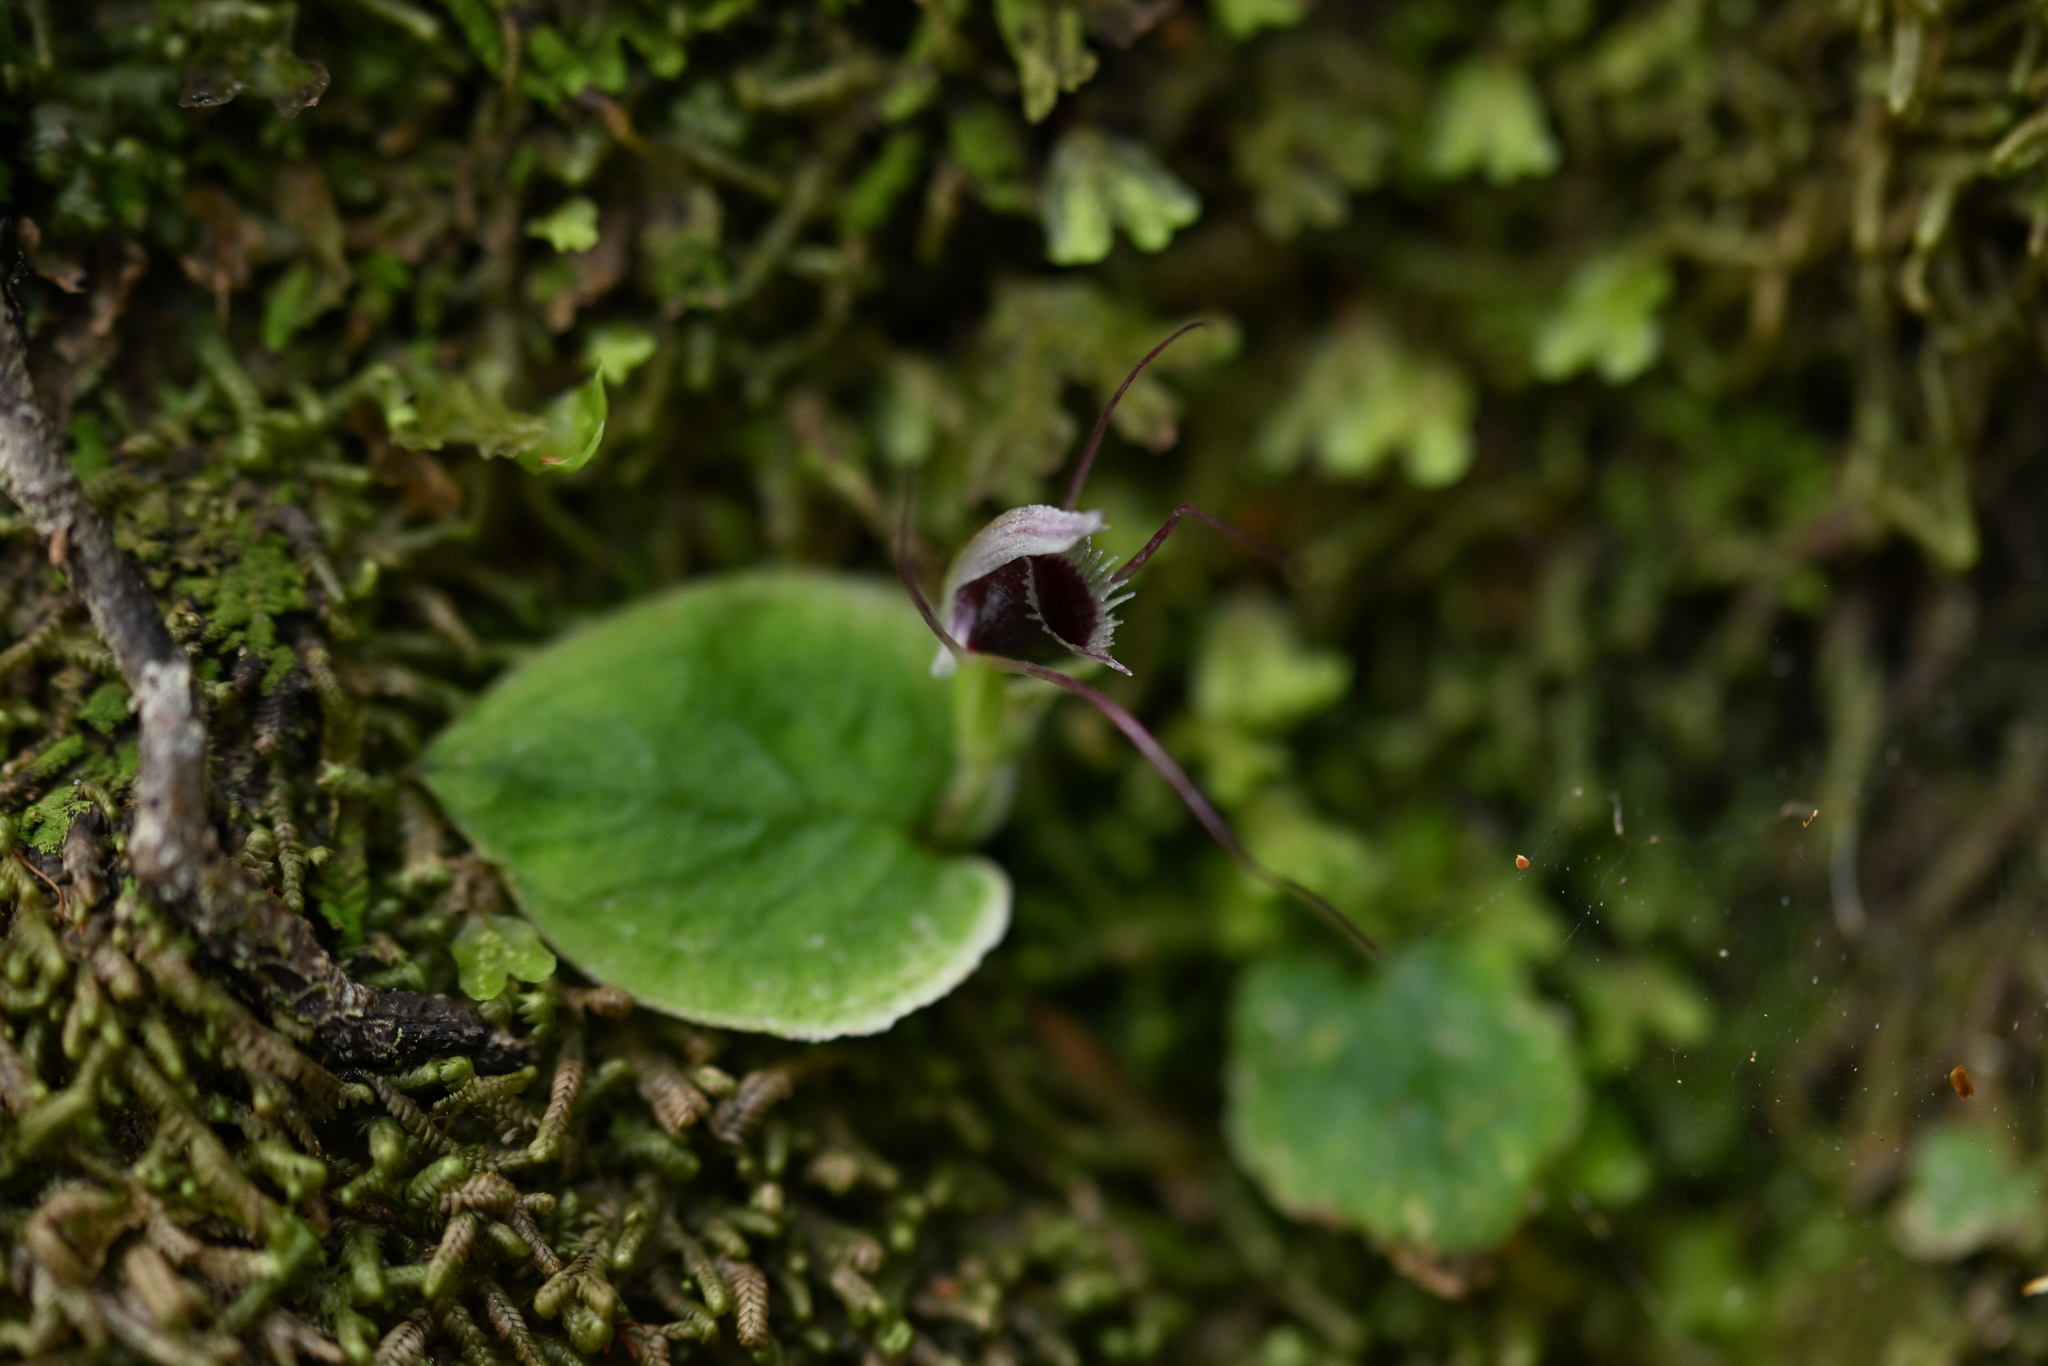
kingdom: Plantae
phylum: Tracheophyta
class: Liliopsida
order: Asparagales
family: Orchidaceae
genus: Corybas
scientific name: Corybas oblongus
